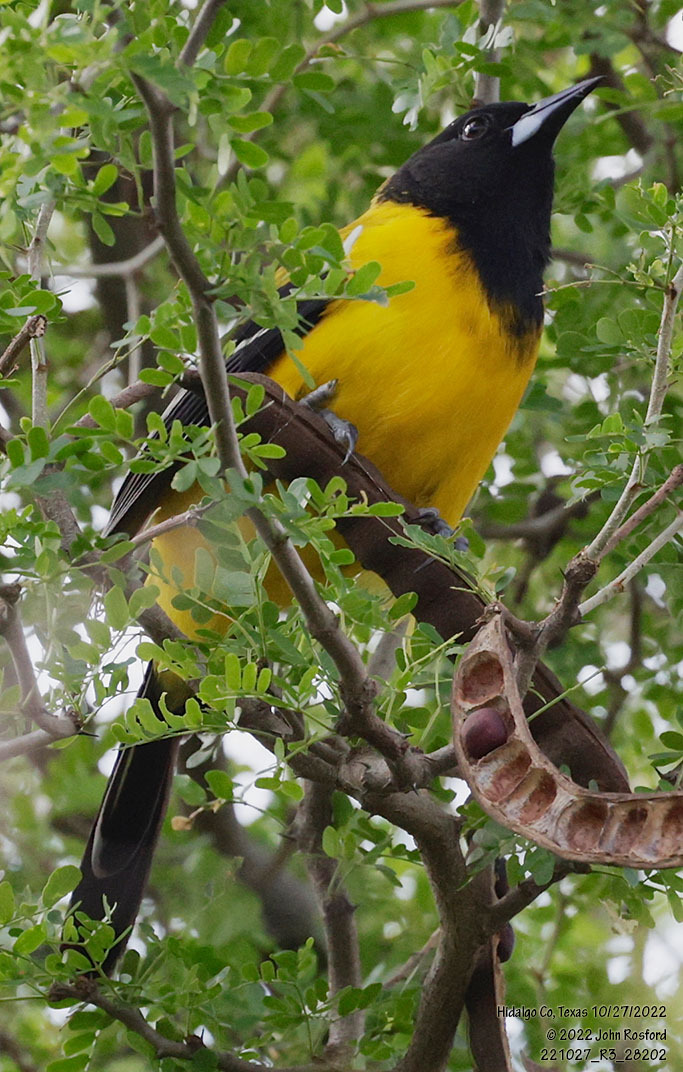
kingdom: Animalia
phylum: Chordata
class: Aves
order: Passeriformes
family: Icteridae
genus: Icterus
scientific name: Icterus graduacauda
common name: Audubon's oriole
